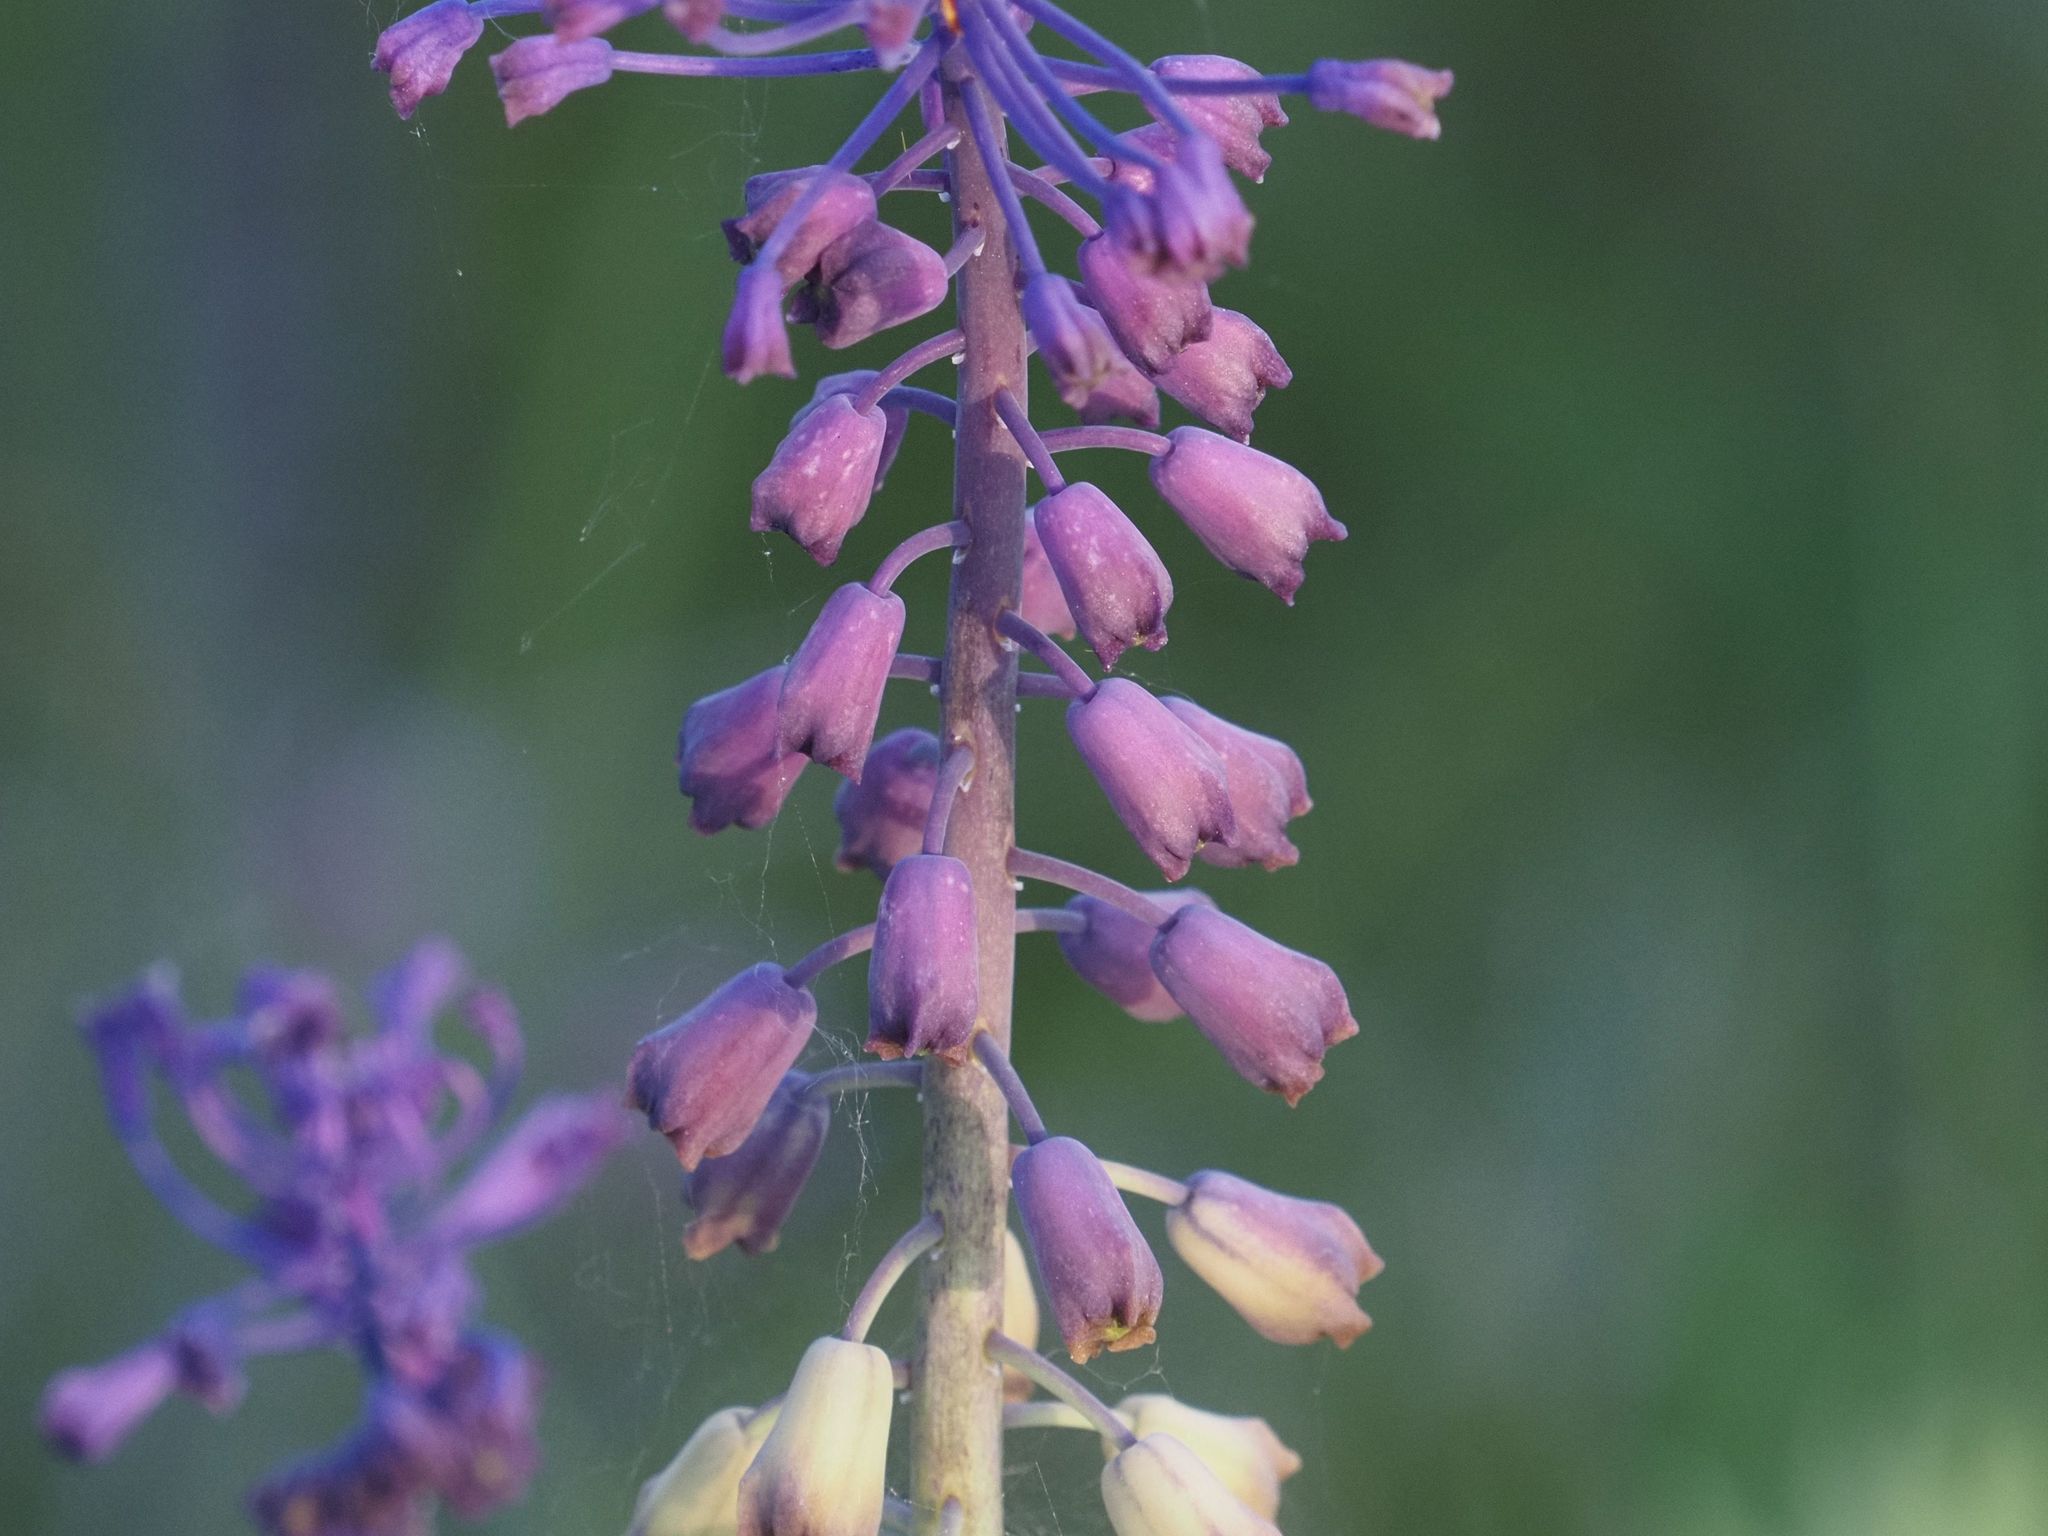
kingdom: Plantae
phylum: Tracheophyta
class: Liliopsida
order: Asparagales
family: Asparagaceae
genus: Muscari
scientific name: Muscari comosum
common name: Tassel hyacinth
